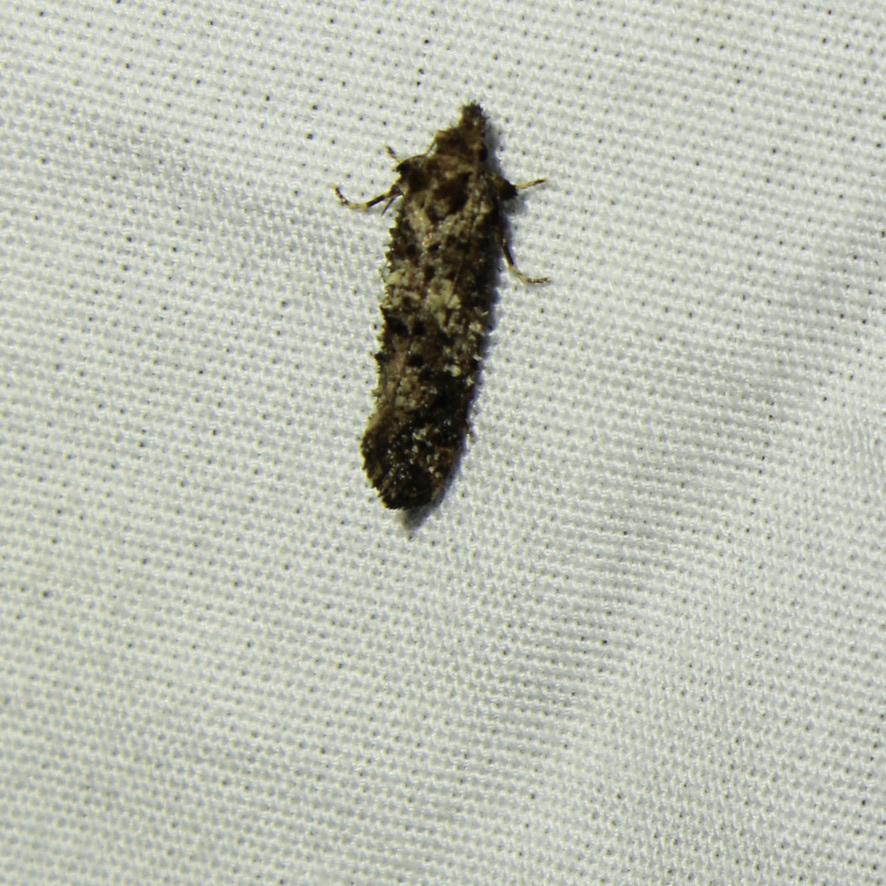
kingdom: Animalia
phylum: Arthropoda
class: Insecta
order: Lepidoptera
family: Tineidae
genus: Acrolophus
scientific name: Acrolophus cressoni
